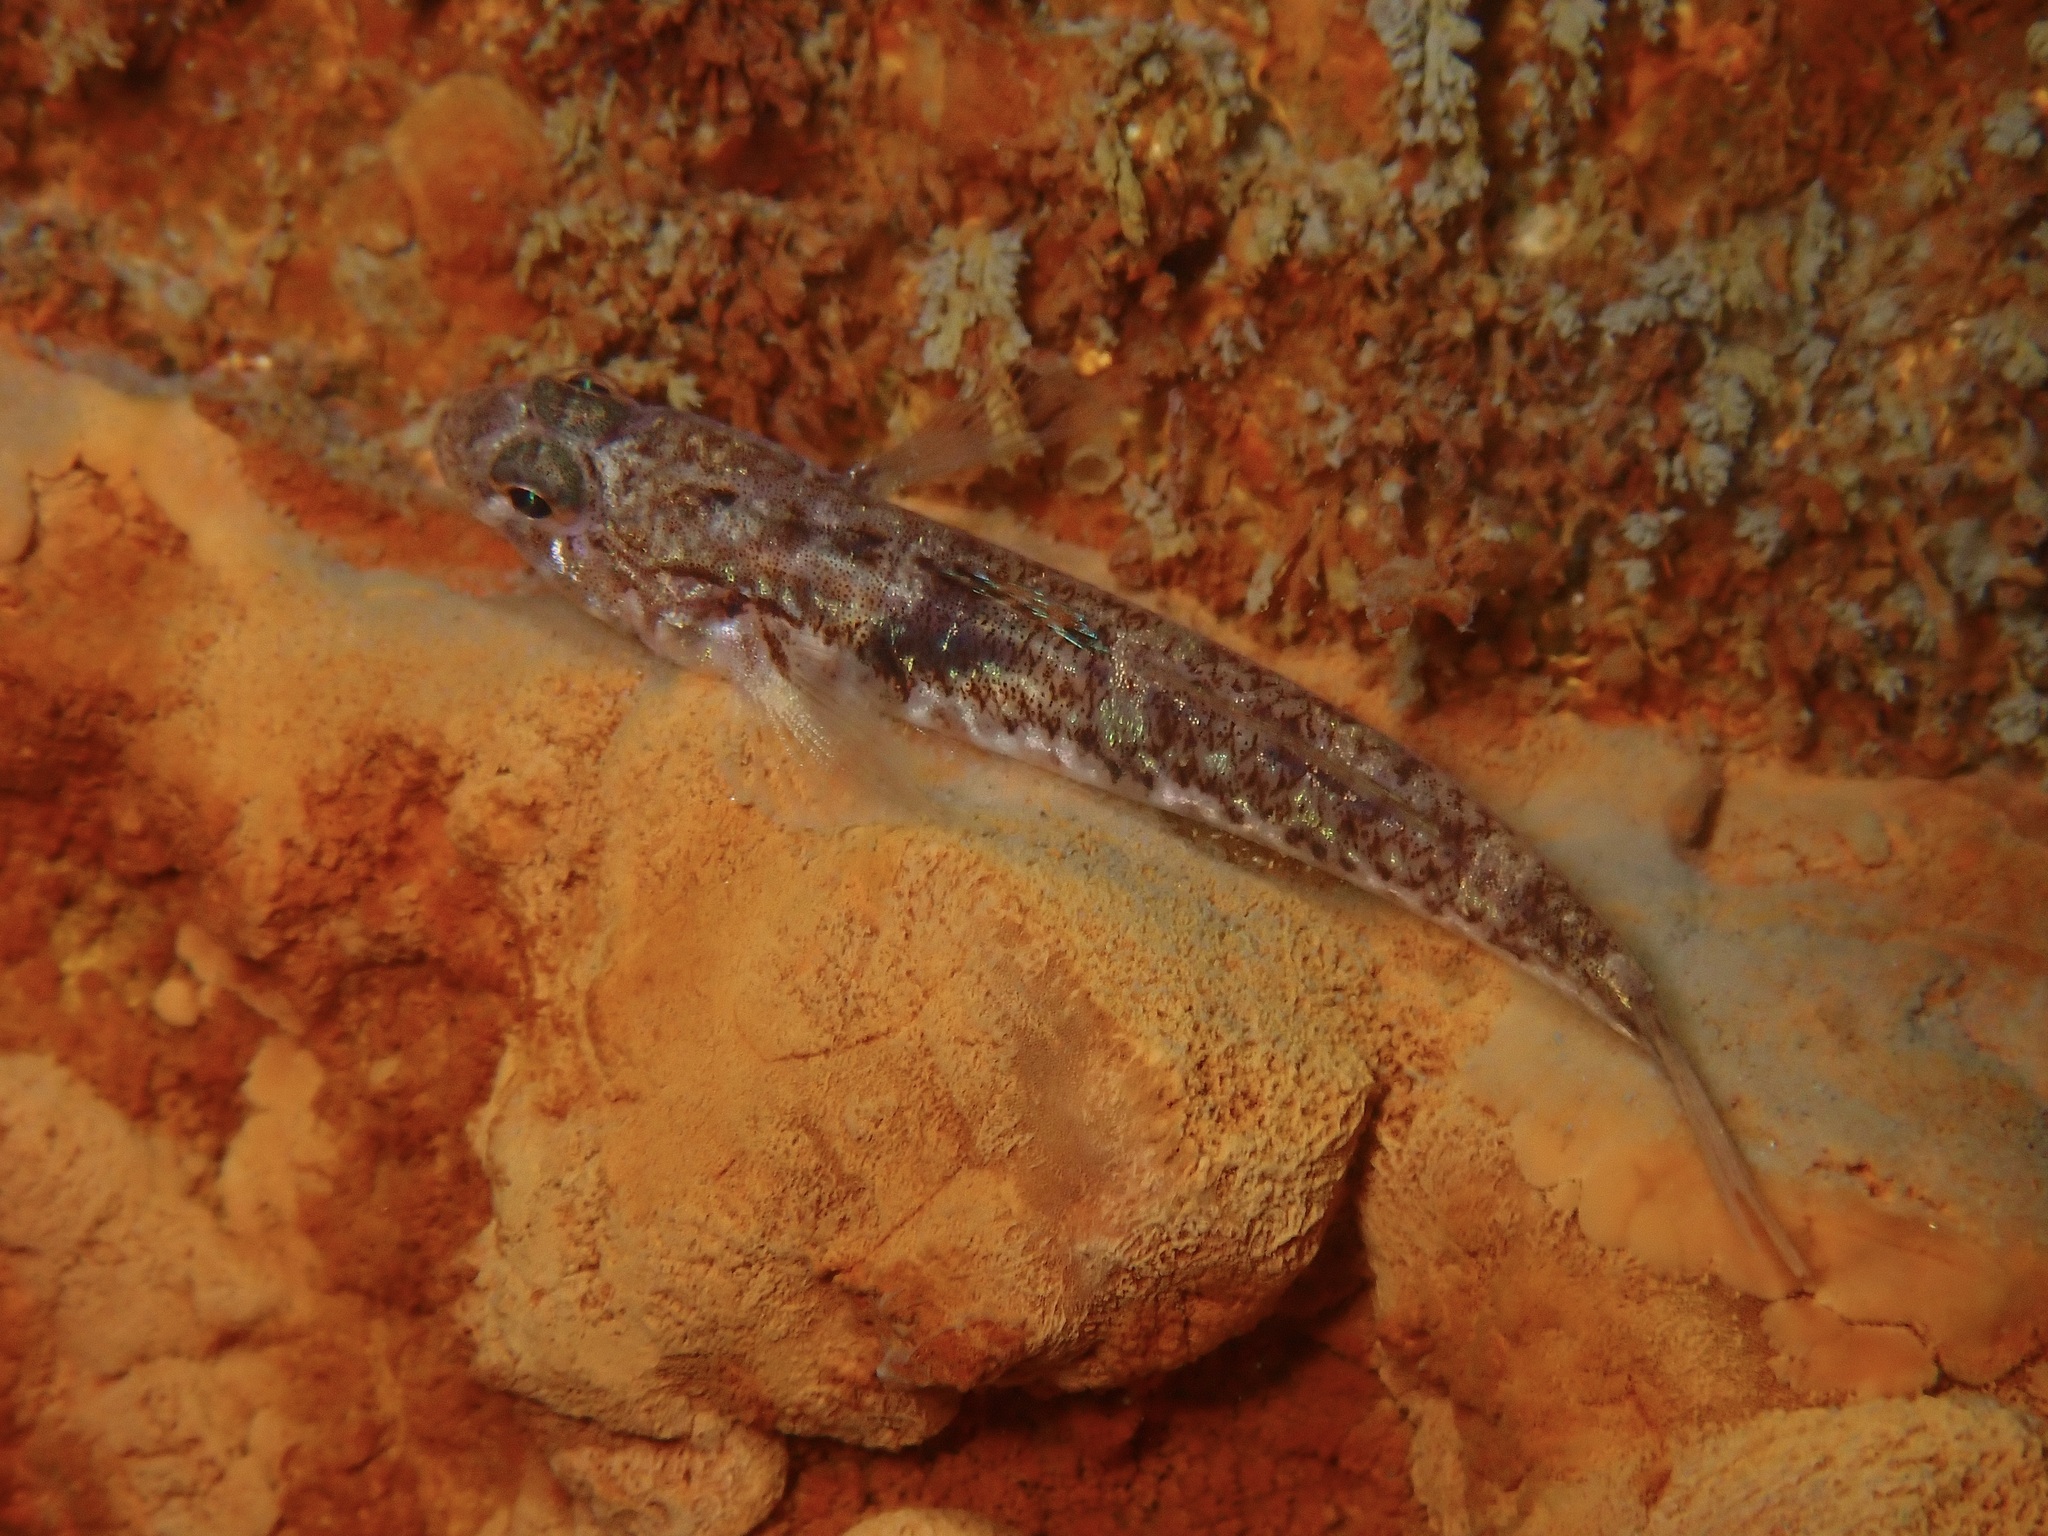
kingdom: Animalia
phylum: Chordata
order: Perciformes
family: Gobiidae
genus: Pomatoschistus
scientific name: Pomatoschistus pictus
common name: Painted goby
